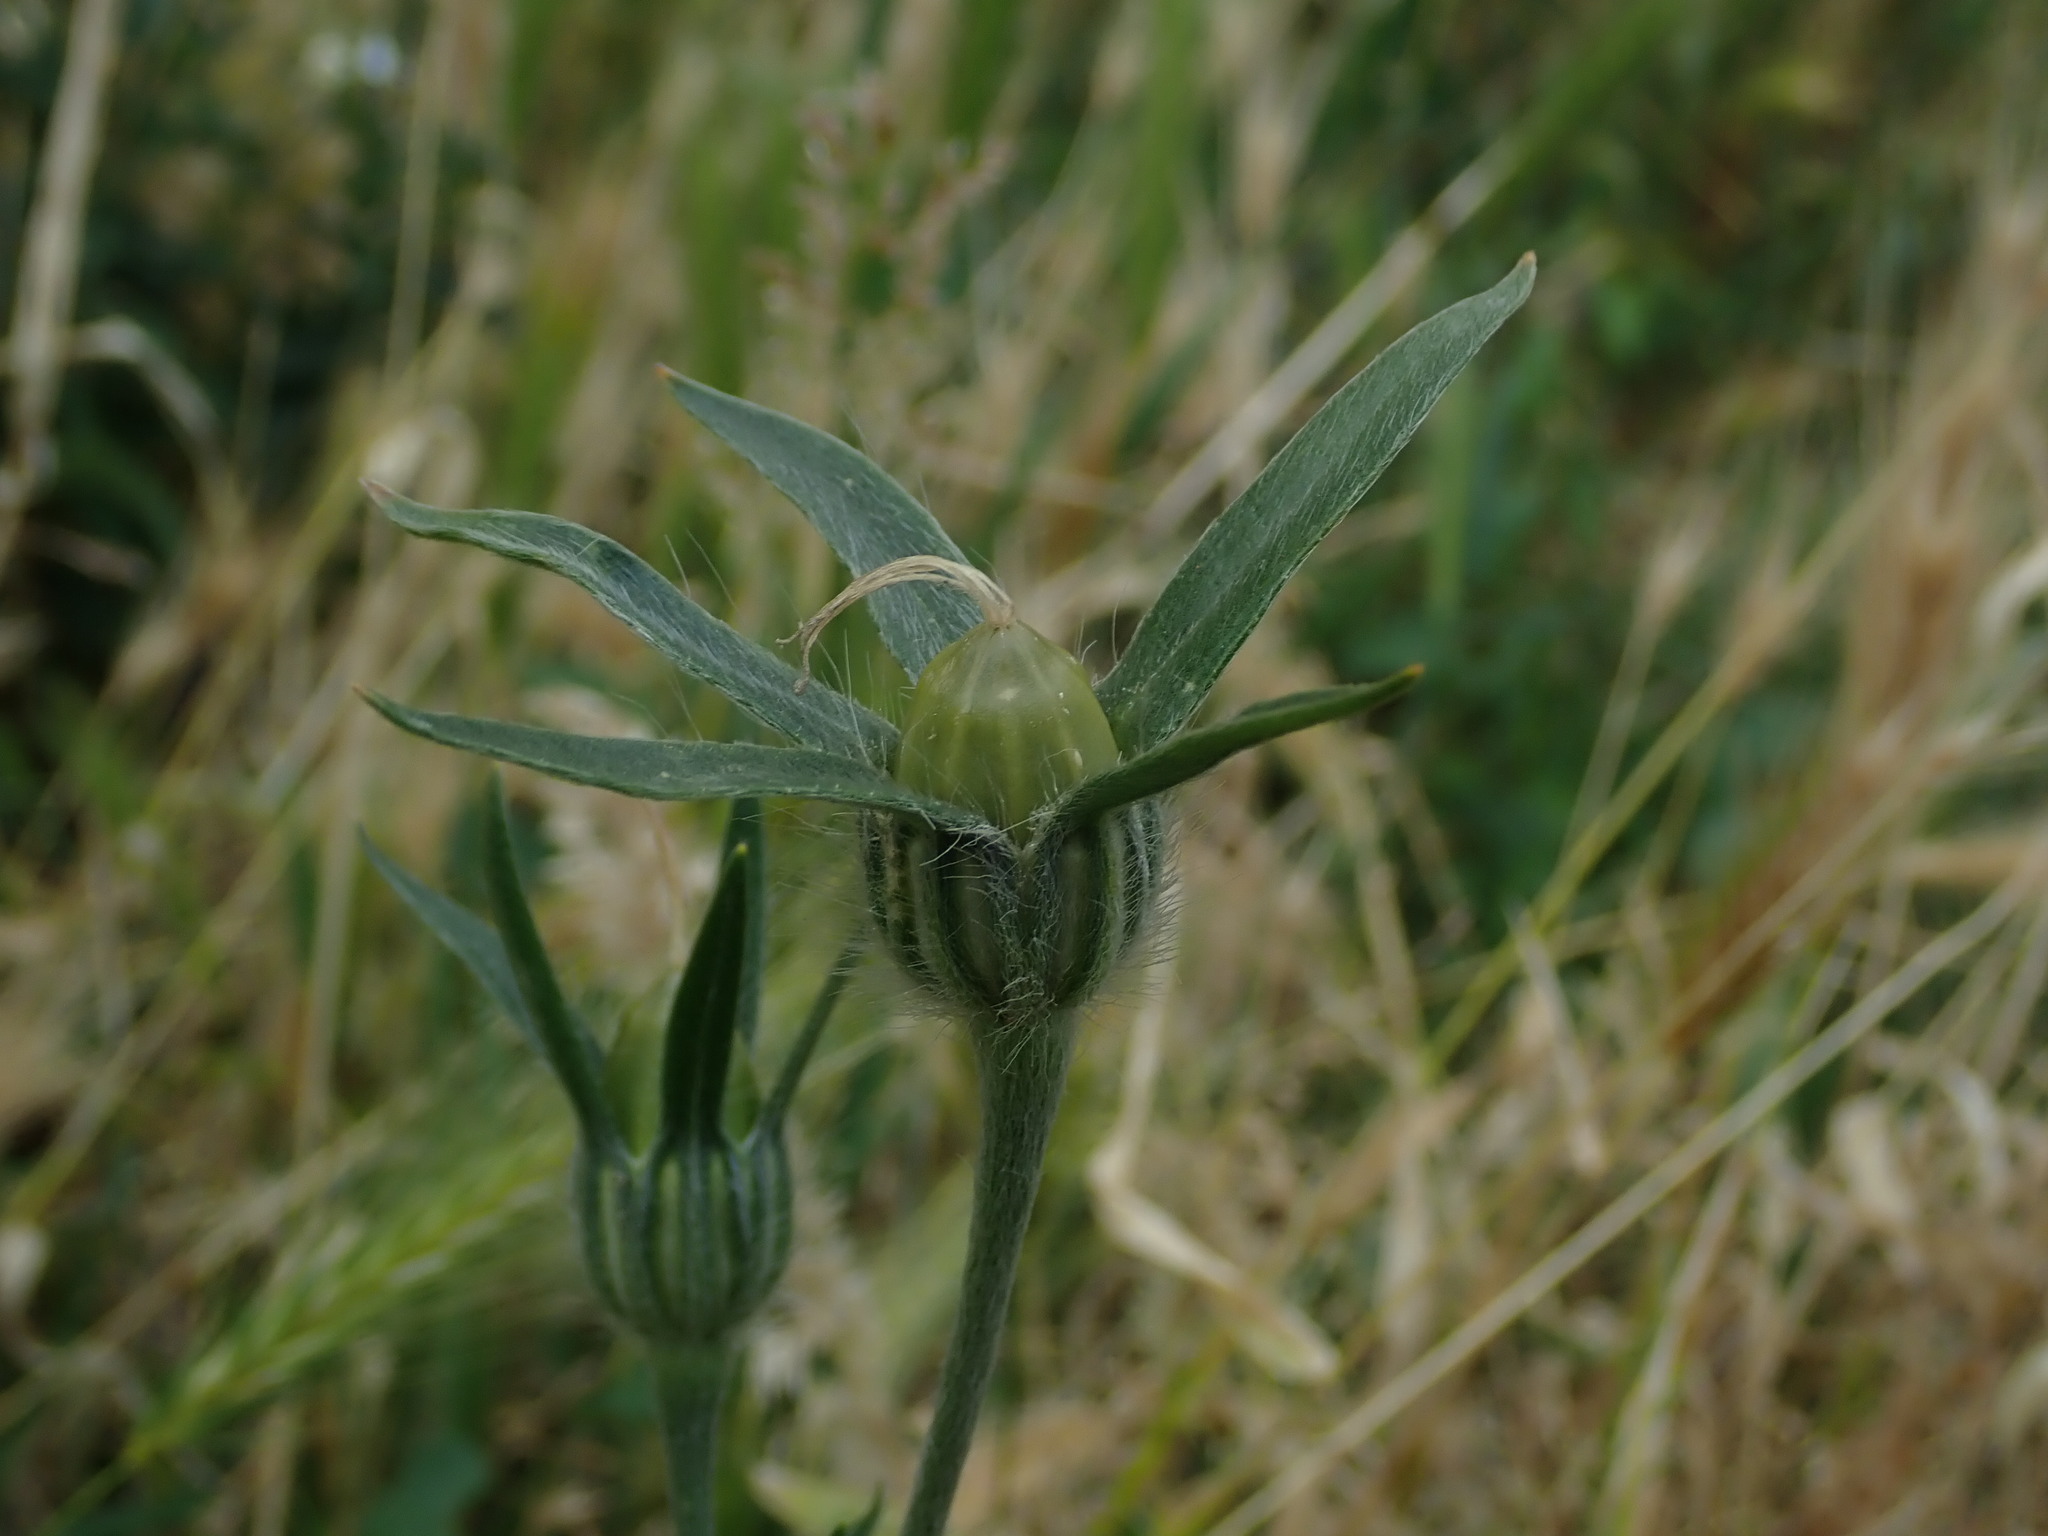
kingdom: Plantae
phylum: Tracheophyta
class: Magnoliopsida
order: Caryophyllales
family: Caryophyllaceae
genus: Agrostemma
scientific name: Agrostemma githago
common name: Common corncockle
